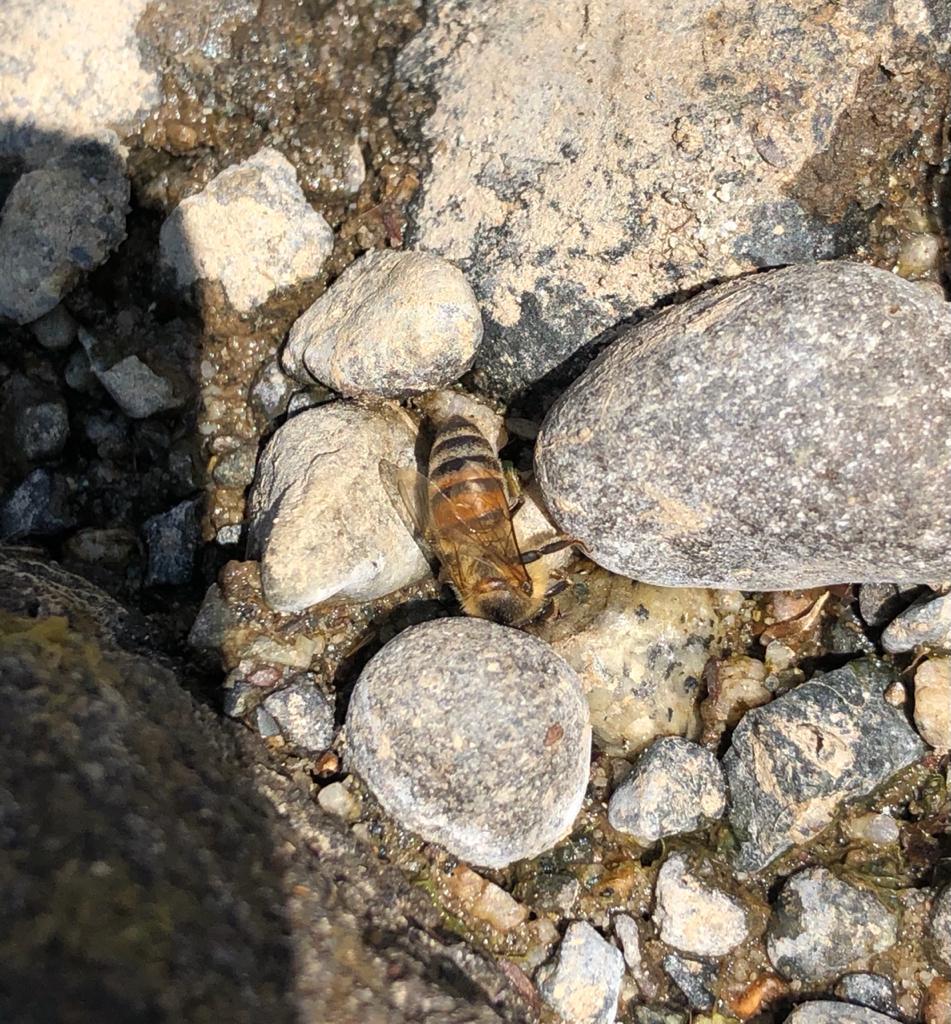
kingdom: Animalia
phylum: Arthropoda
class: Insecta
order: Hymenoptera
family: Apidae
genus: Apis
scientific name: Apis mellifera
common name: Honey bee
